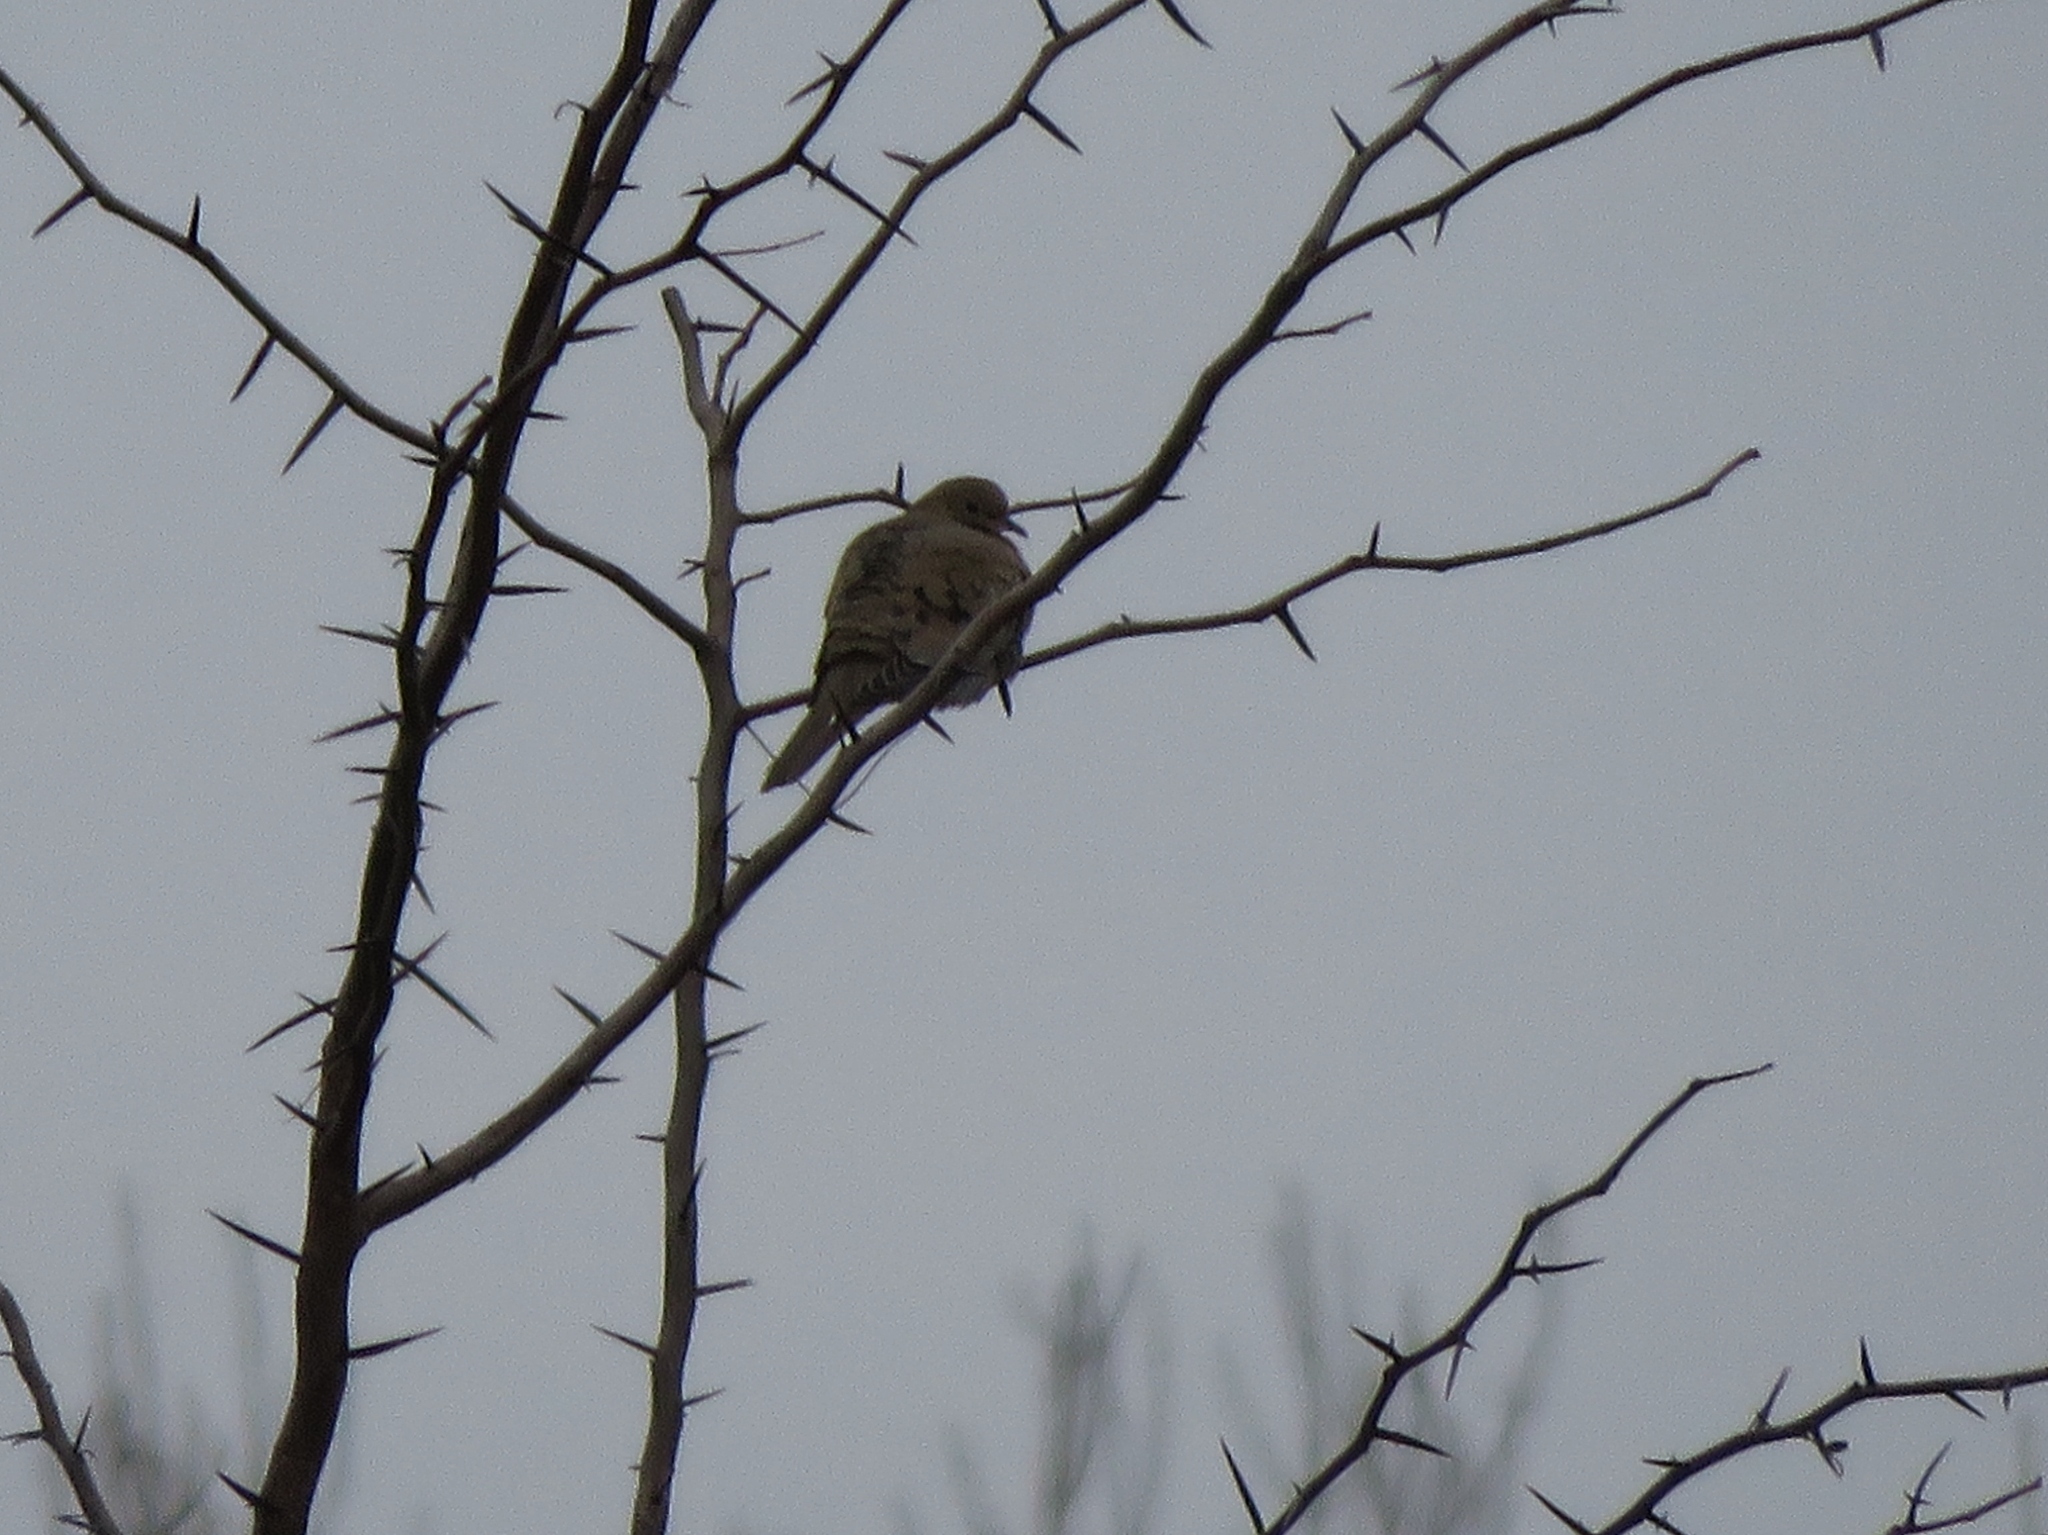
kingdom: Animalia
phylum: Chordata
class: Aves
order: Columbiformes
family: Columbidae
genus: Zenaida
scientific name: Zenaida macroura
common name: Mourning dove
